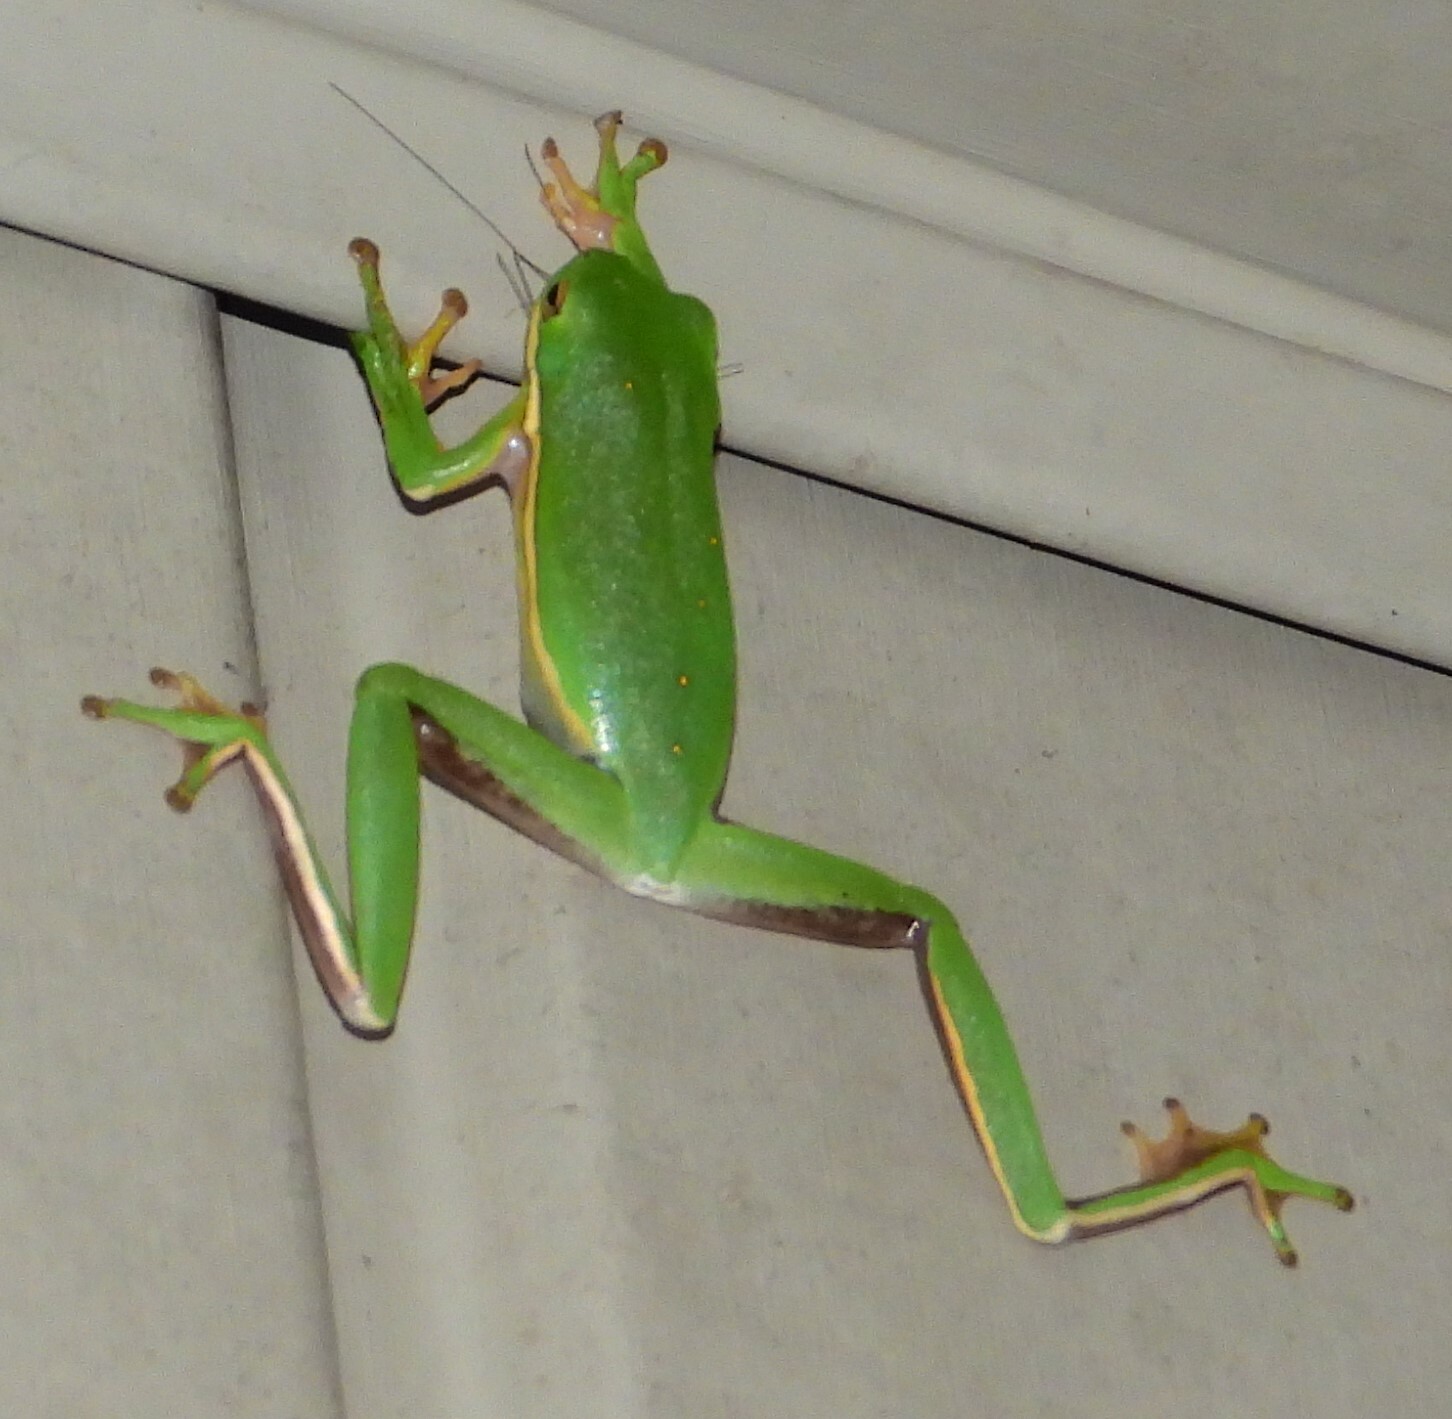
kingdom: Animalia
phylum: Chordata
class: Amphibia
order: Anura
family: Hylidae
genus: Dryophytes
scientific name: Dryophytes cinereus
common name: Green treefrog
